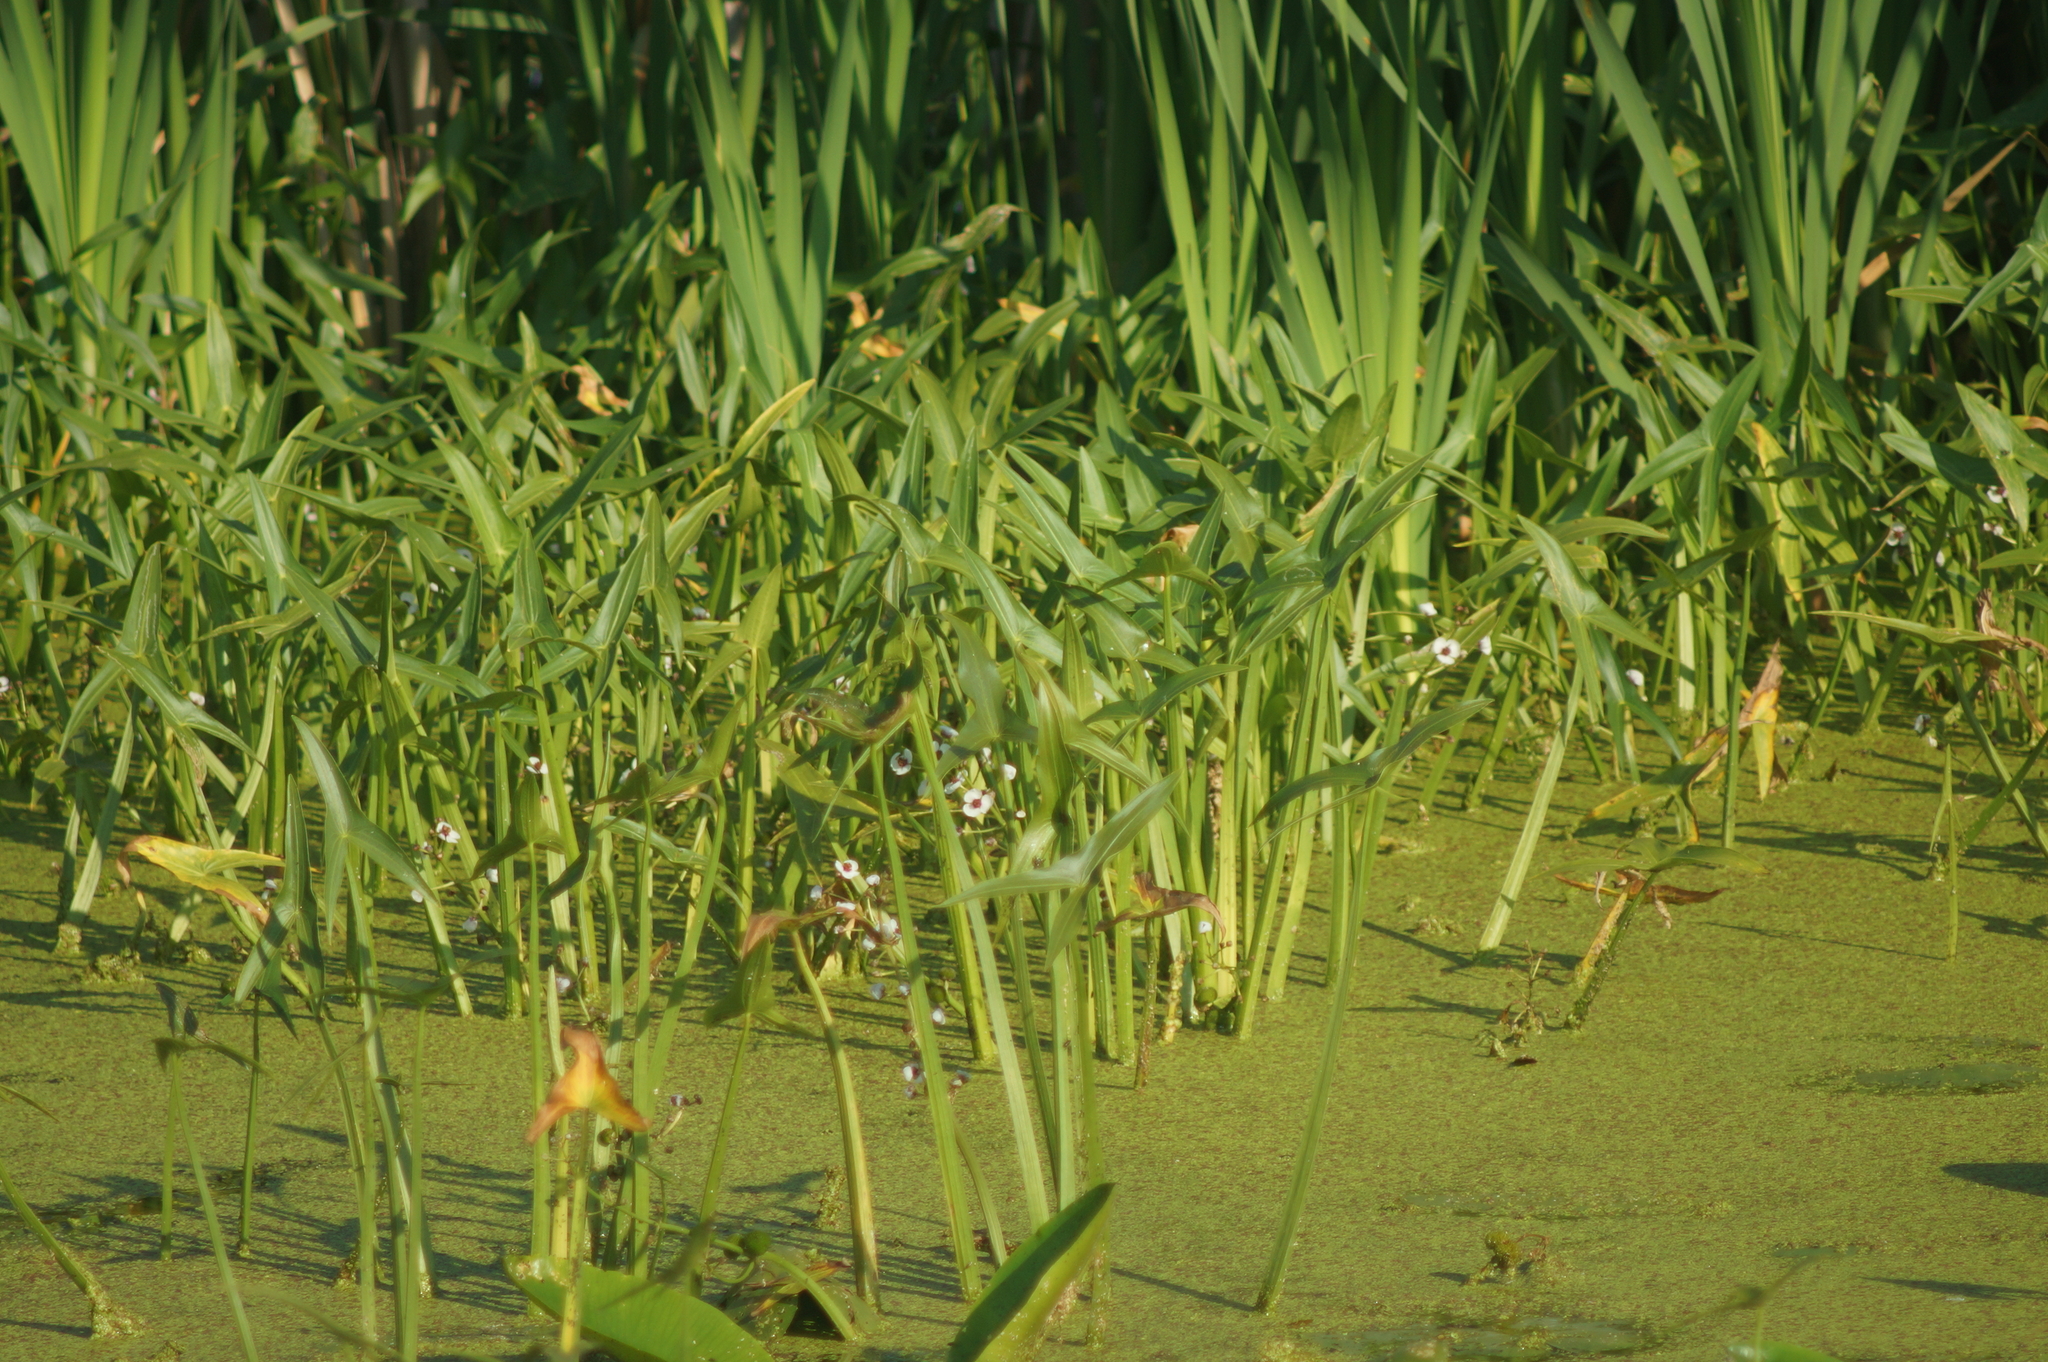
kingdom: Plantae
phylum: Tracheophyta
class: Liliopsida
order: Alismatales
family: Alismataceae
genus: Sagittaria
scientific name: Sagittaria sagittifolia
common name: Arrowhead
